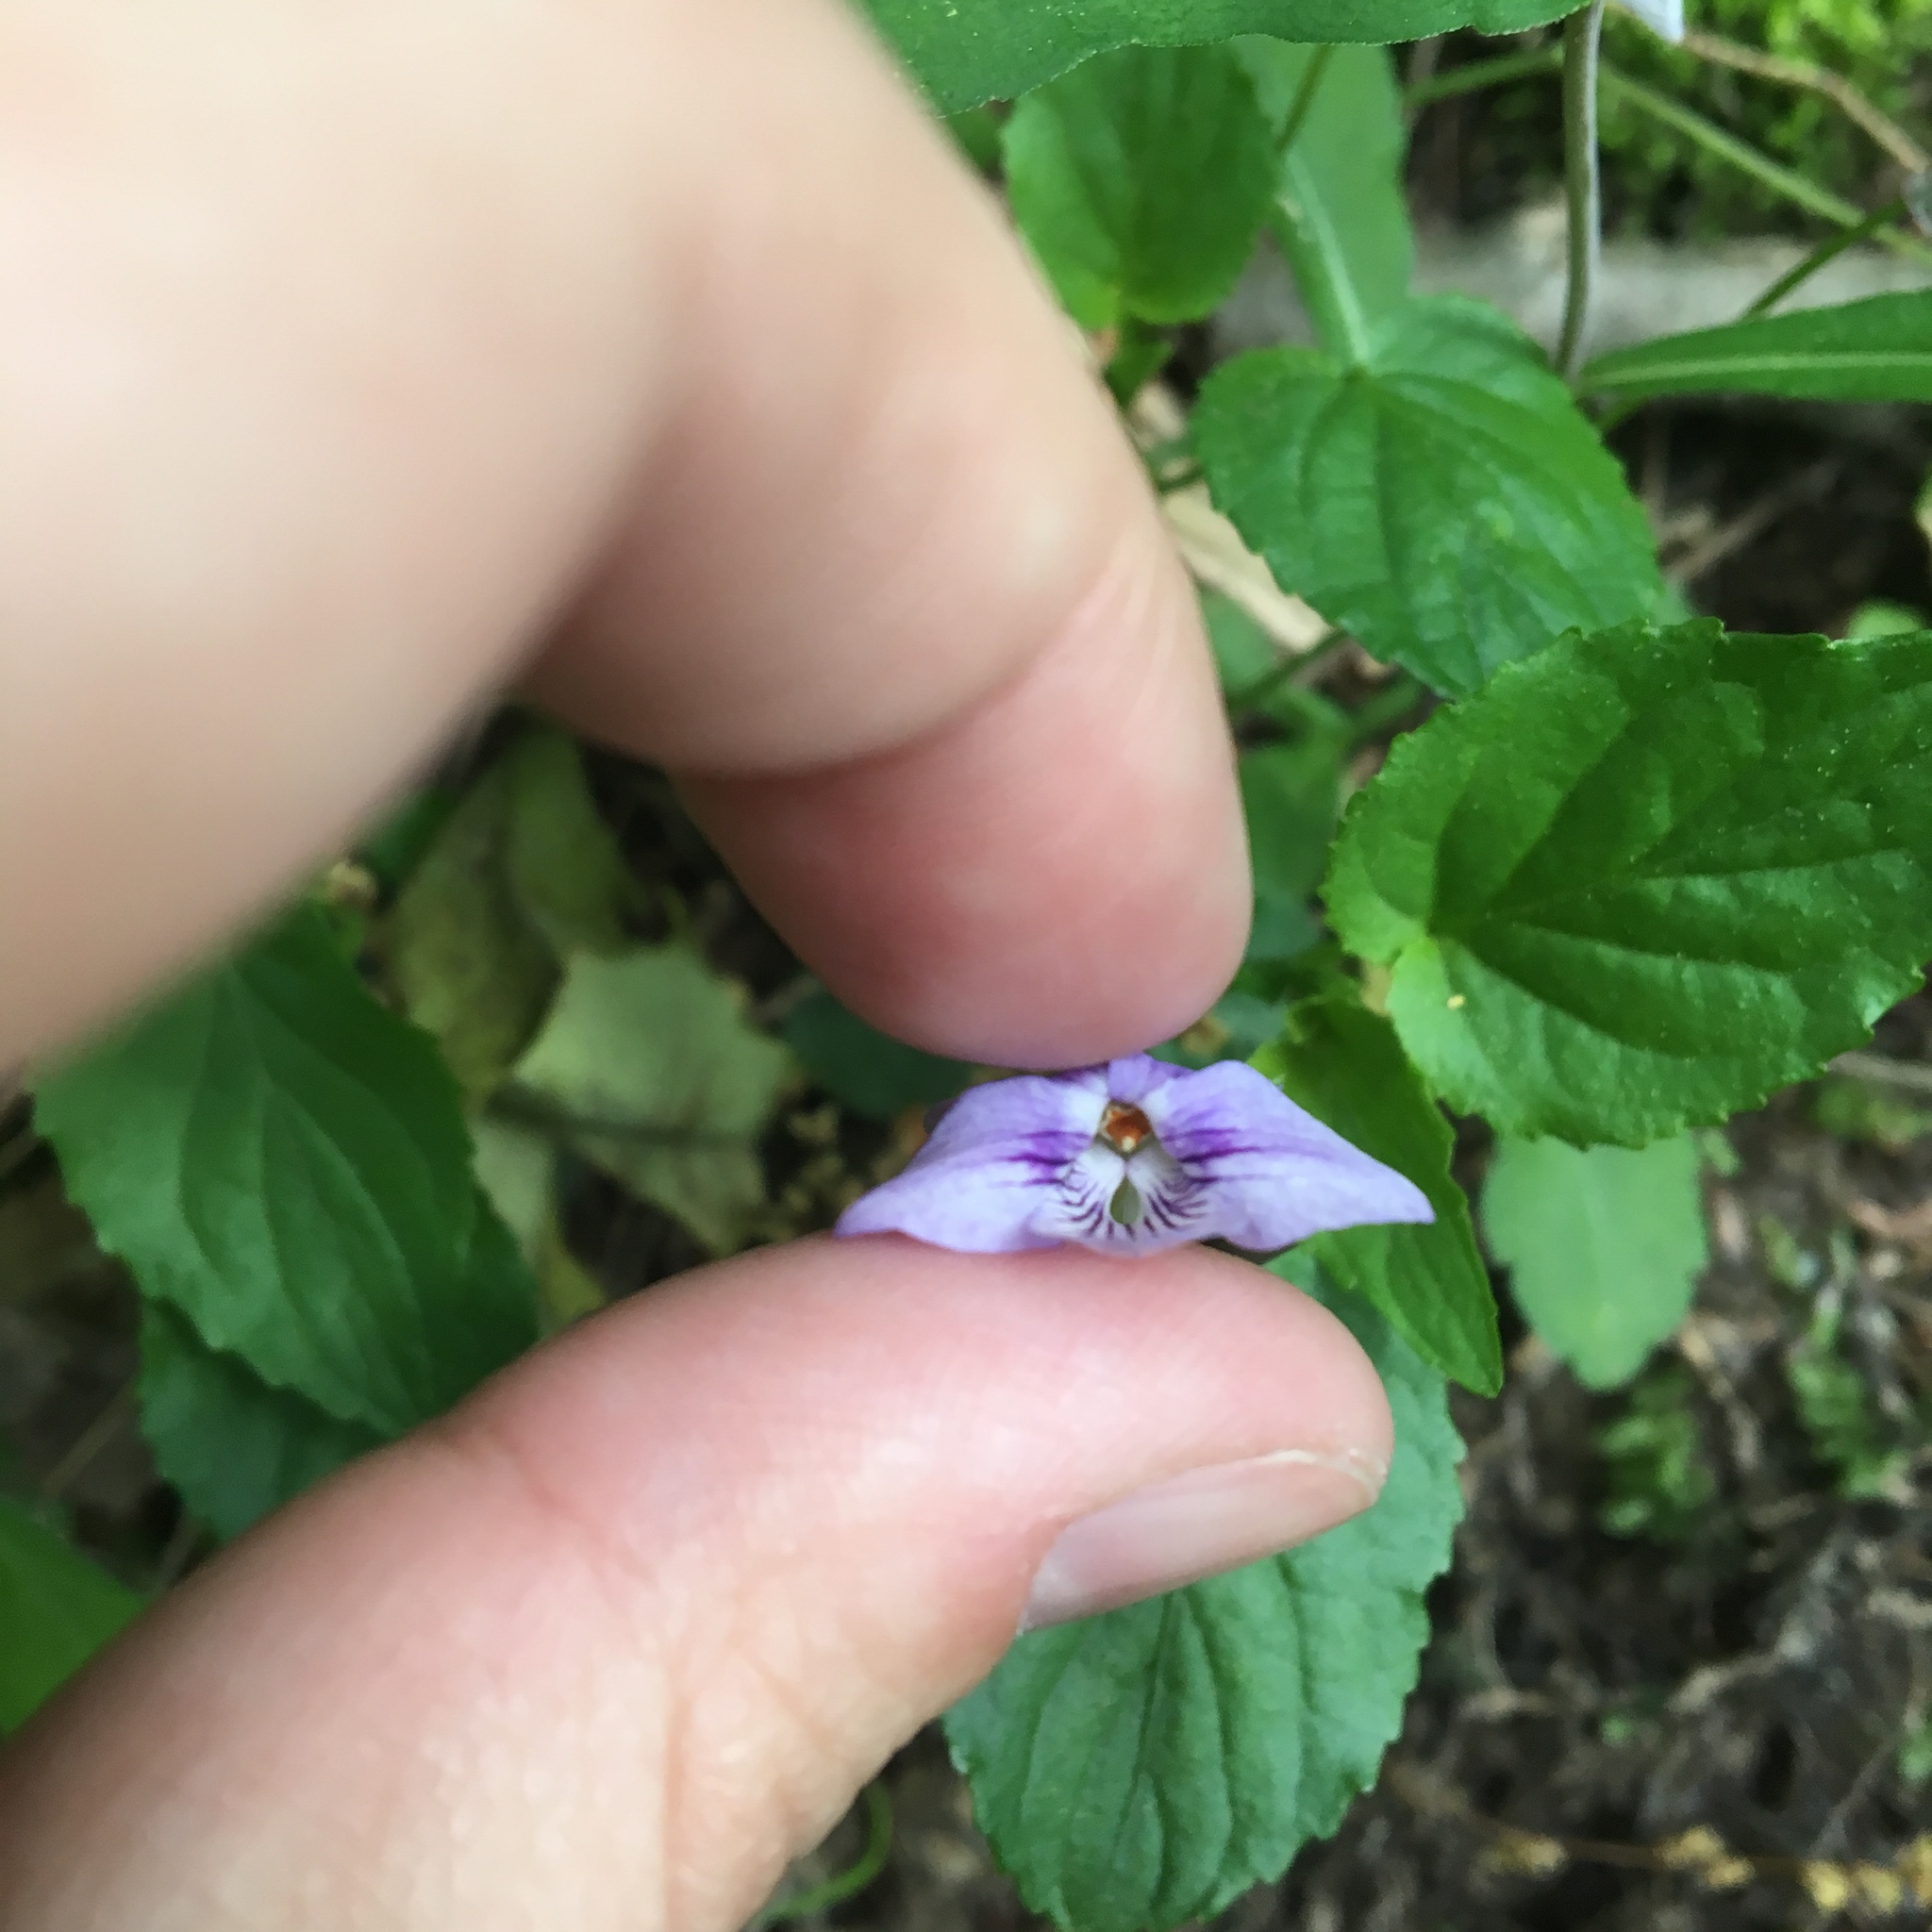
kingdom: Plantae
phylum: Tracheophyta
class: Magnoliopsida
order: Malpighiales
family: Violaceae
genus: Viola
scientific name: Viola rostrata
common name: Long-spur violet
